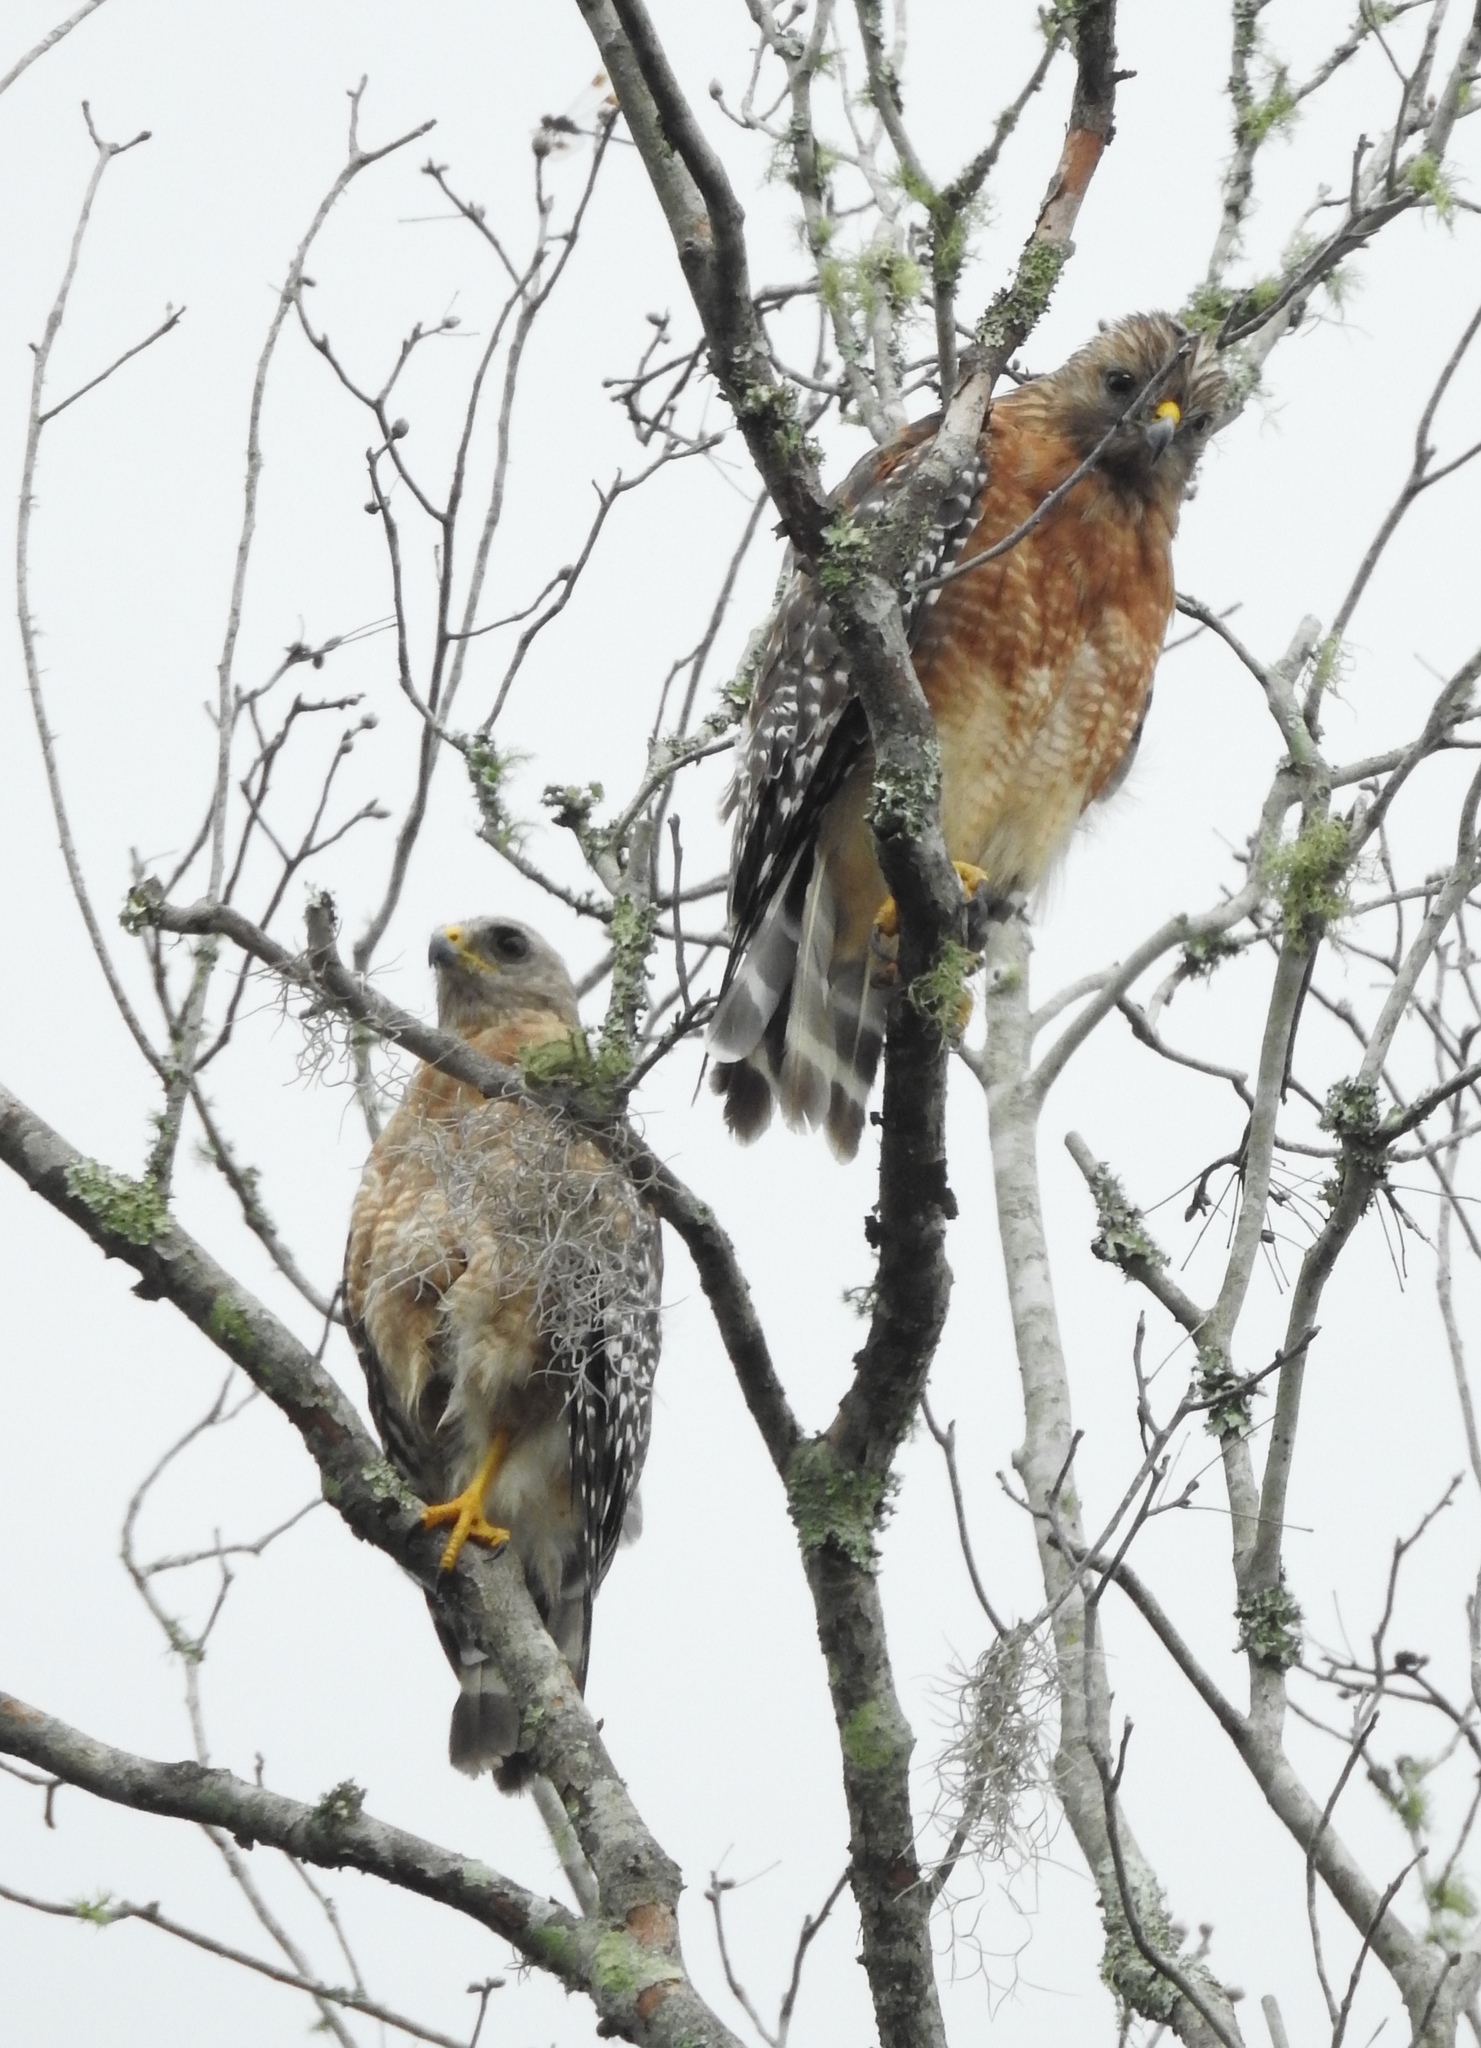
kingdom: Animalia
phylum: Chordata
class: Aves
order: Accipitriformes
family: Accipitridae
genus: Buteo
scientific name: Buteo lineatus
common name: Red-shouldered hawk
